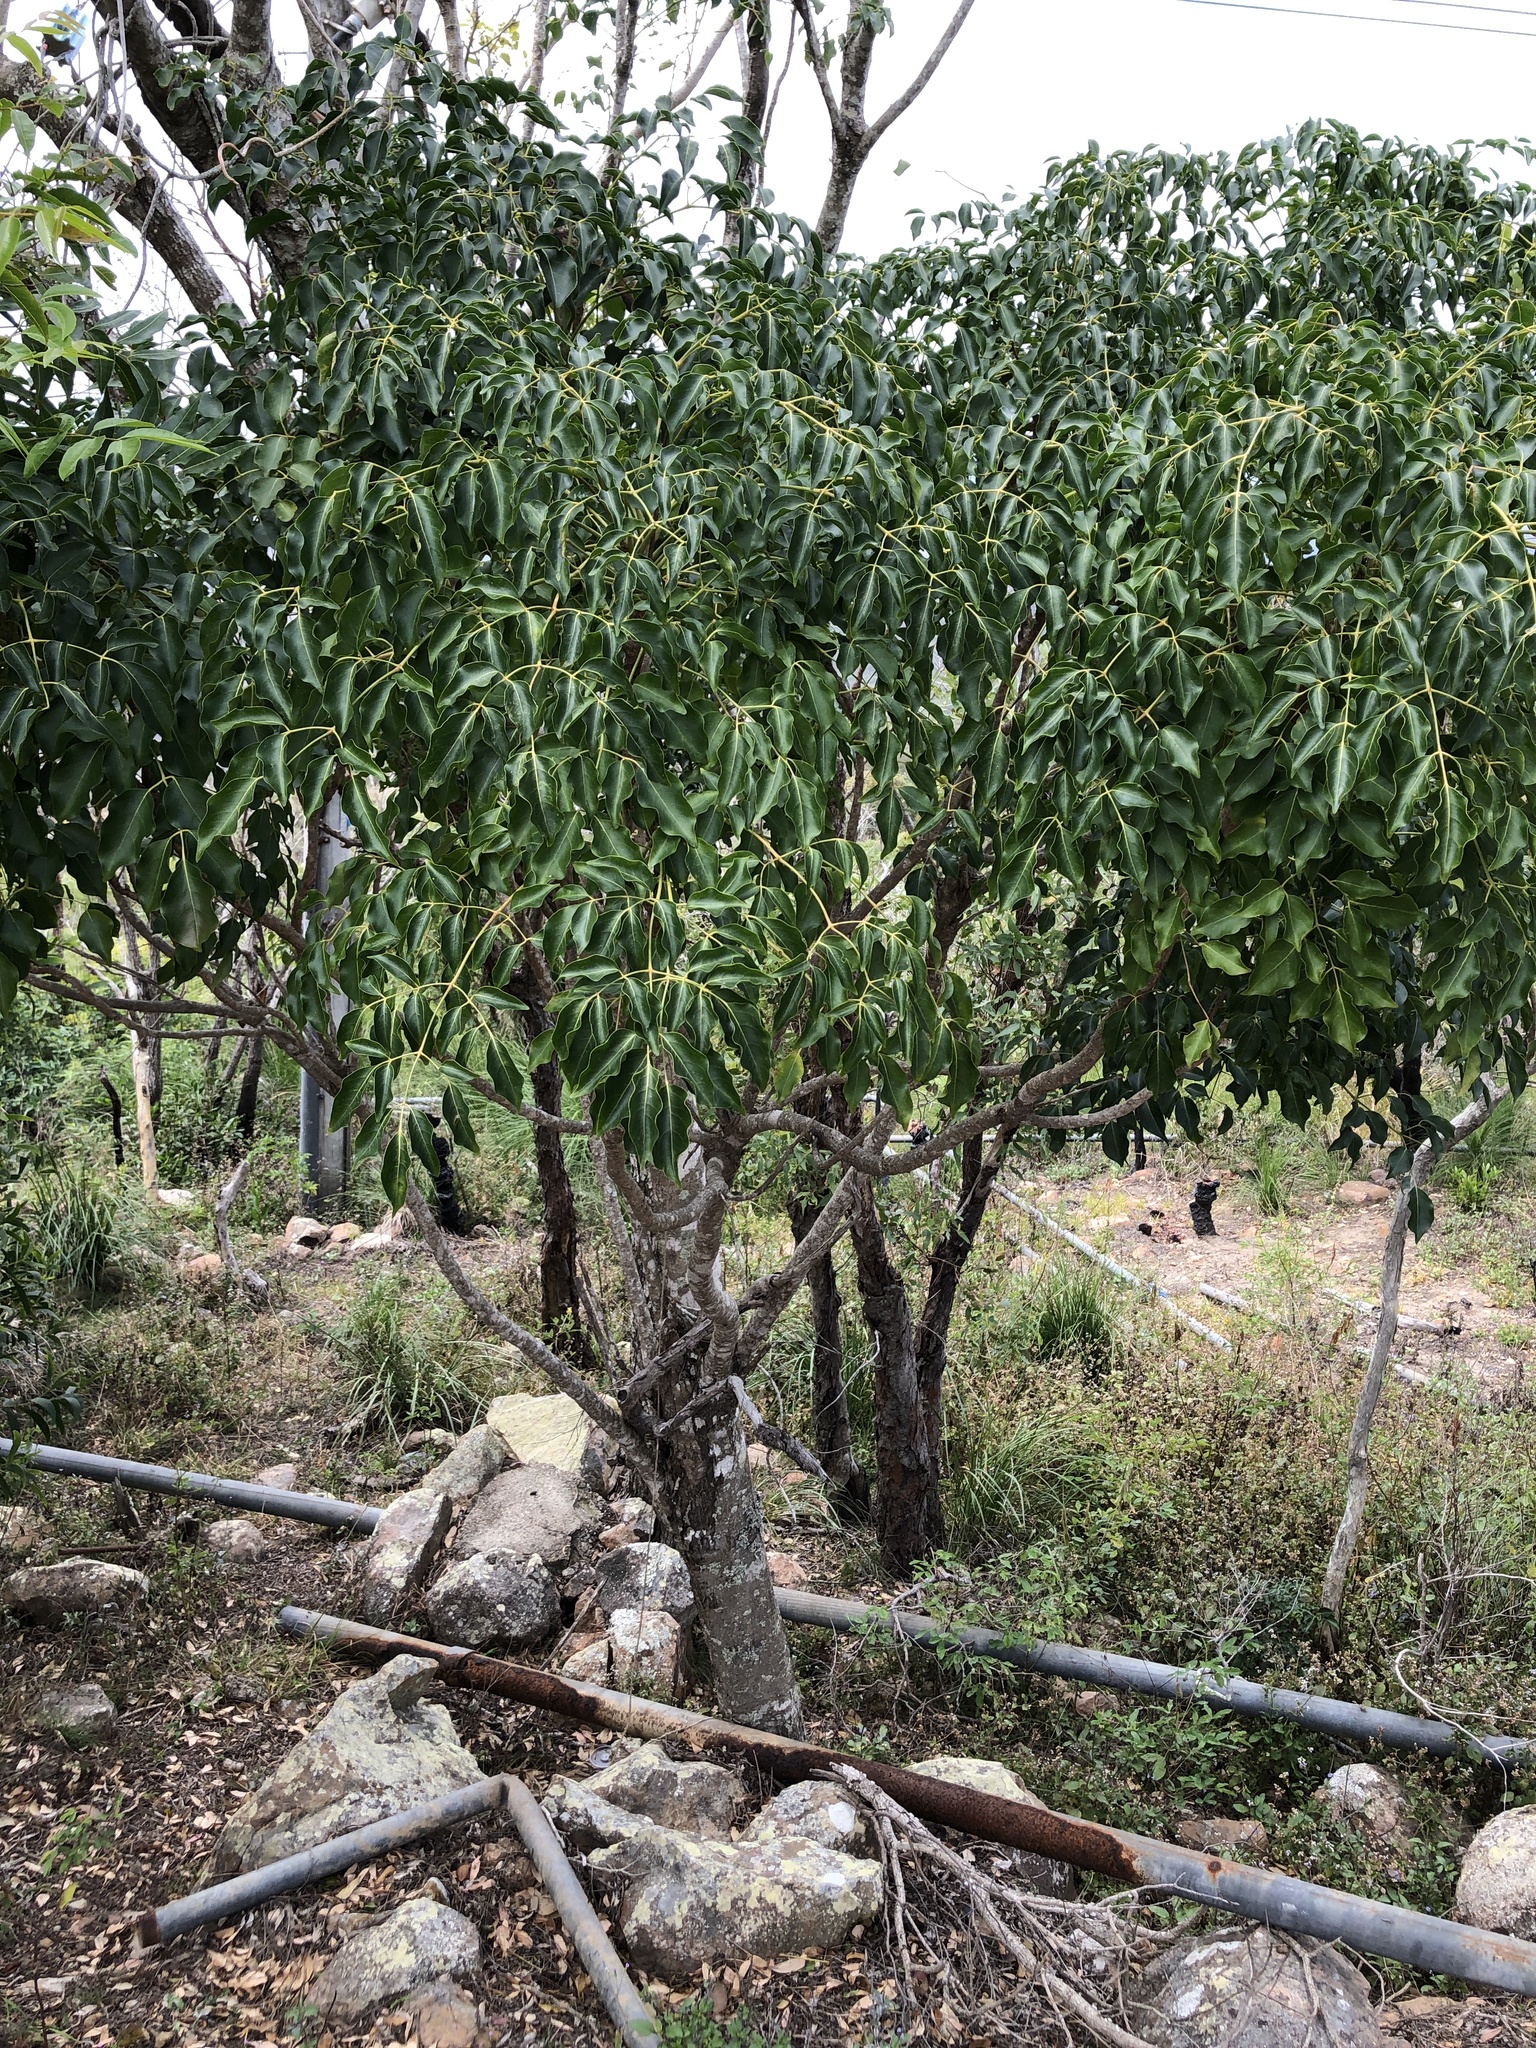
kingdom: Plantae
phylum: Tracheophyta
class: Magnoliopsida
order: Apiales
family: Araliaceae
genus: Polyscias
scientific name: Polyscias elegans
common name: Mowbulan whitewood
